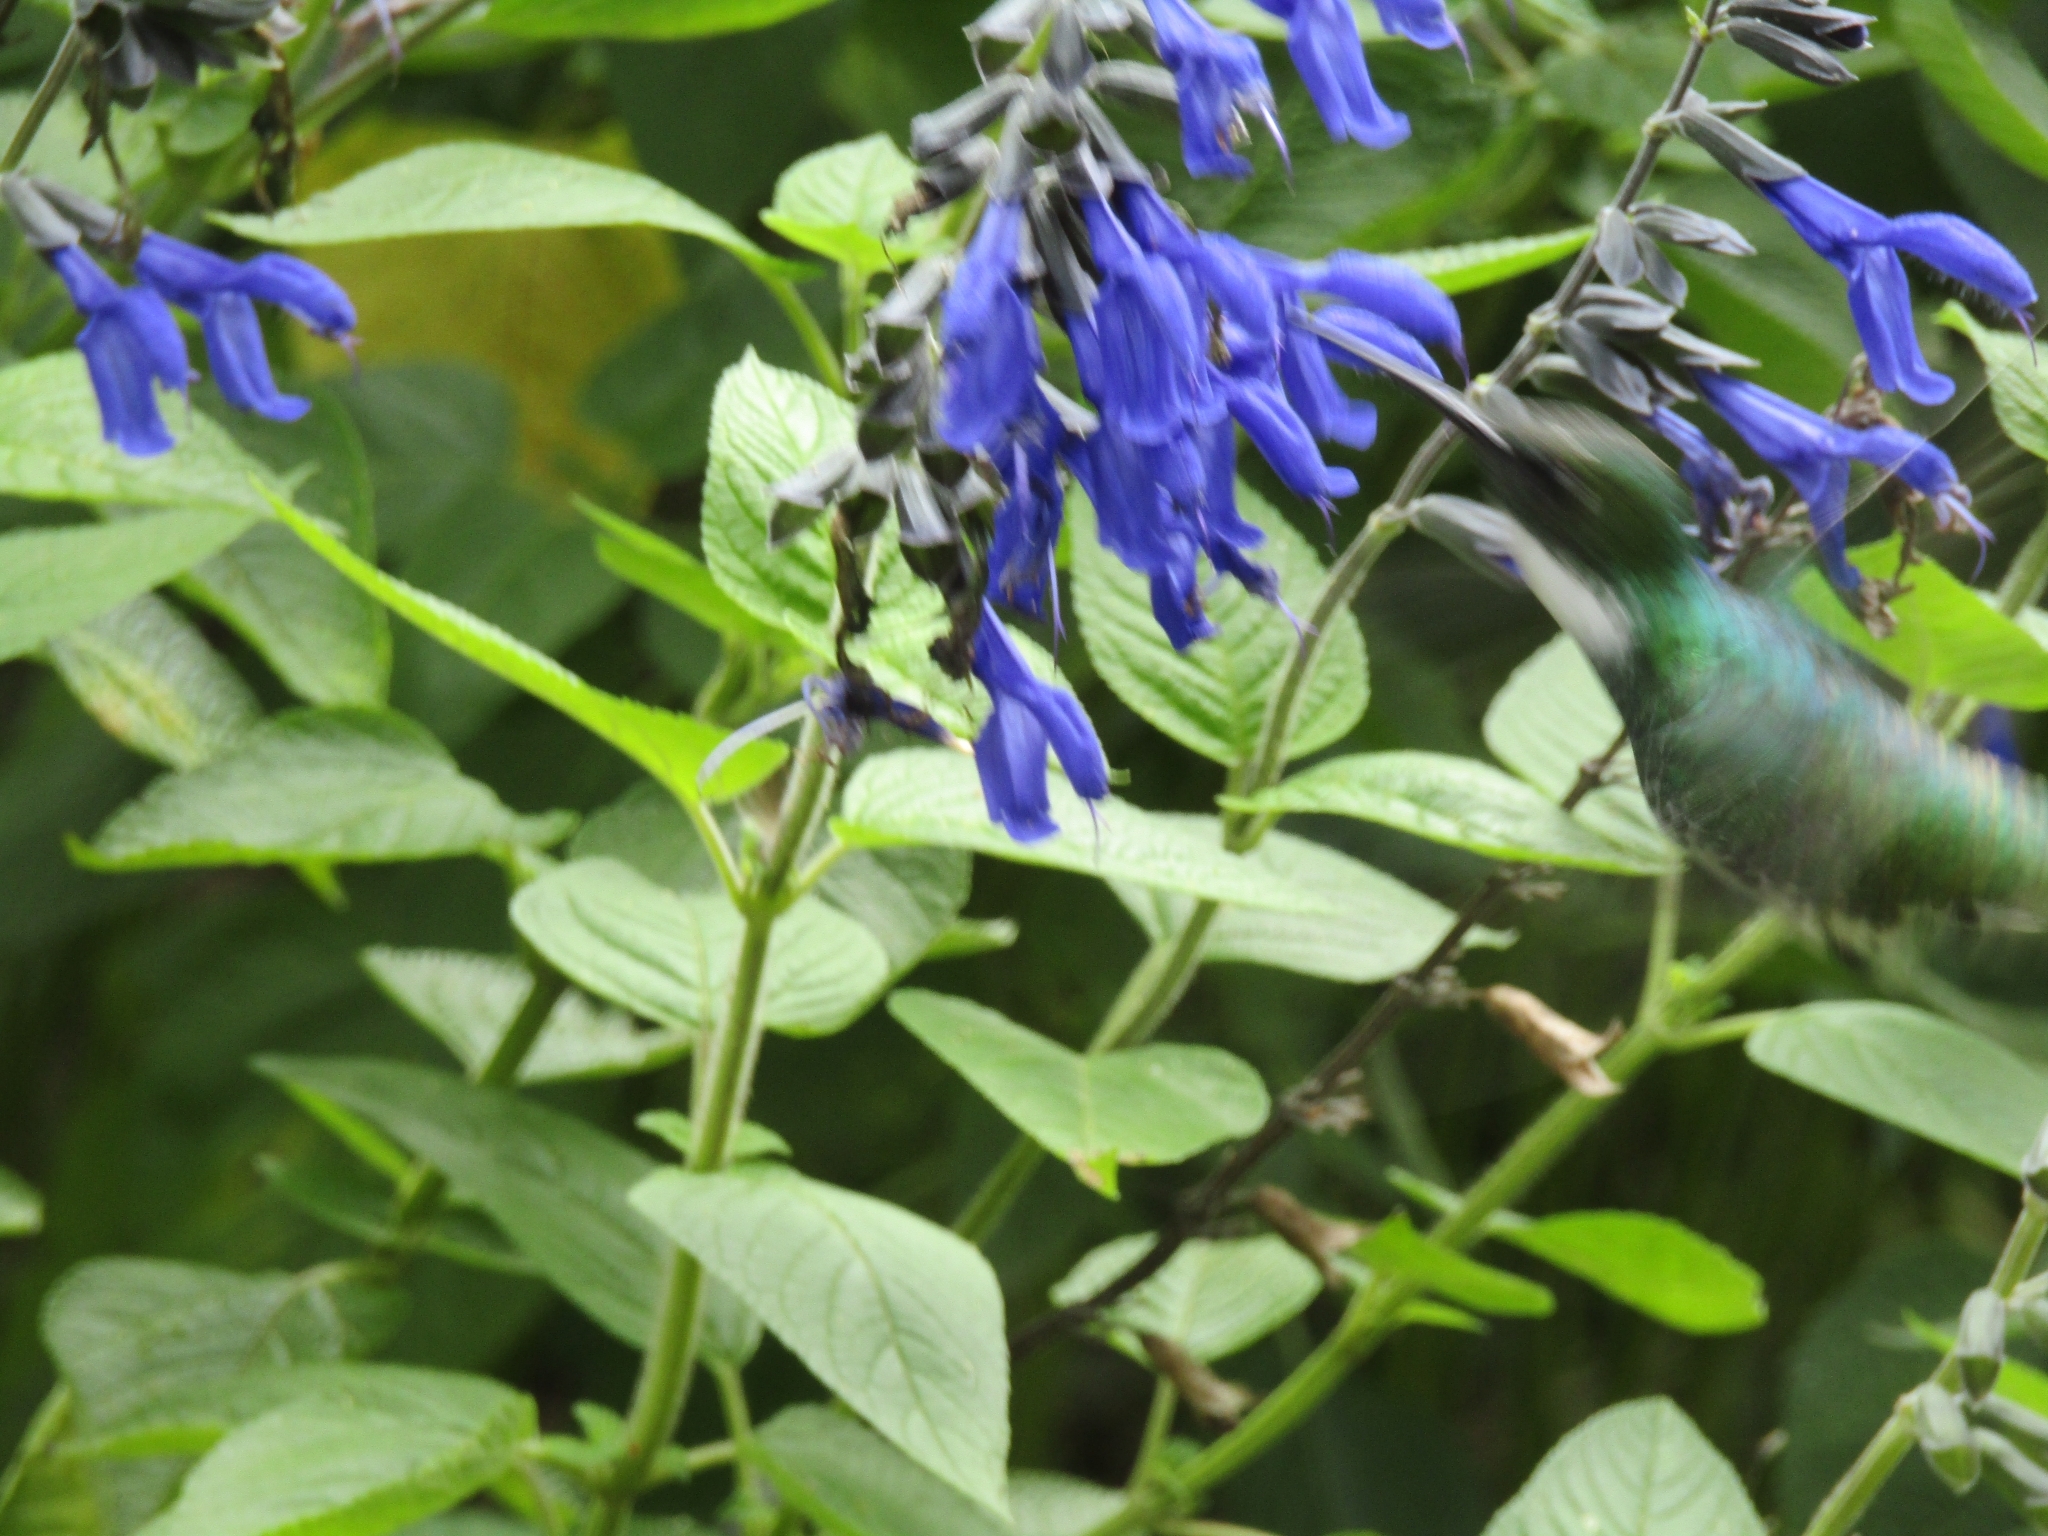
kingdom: Plantae
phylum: Tracheophyta
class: Magnoliopsida
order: Lamiales
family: Lamiaceae
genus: Salvia
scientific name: Salvia guaranitica
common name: Anise-scented sage
